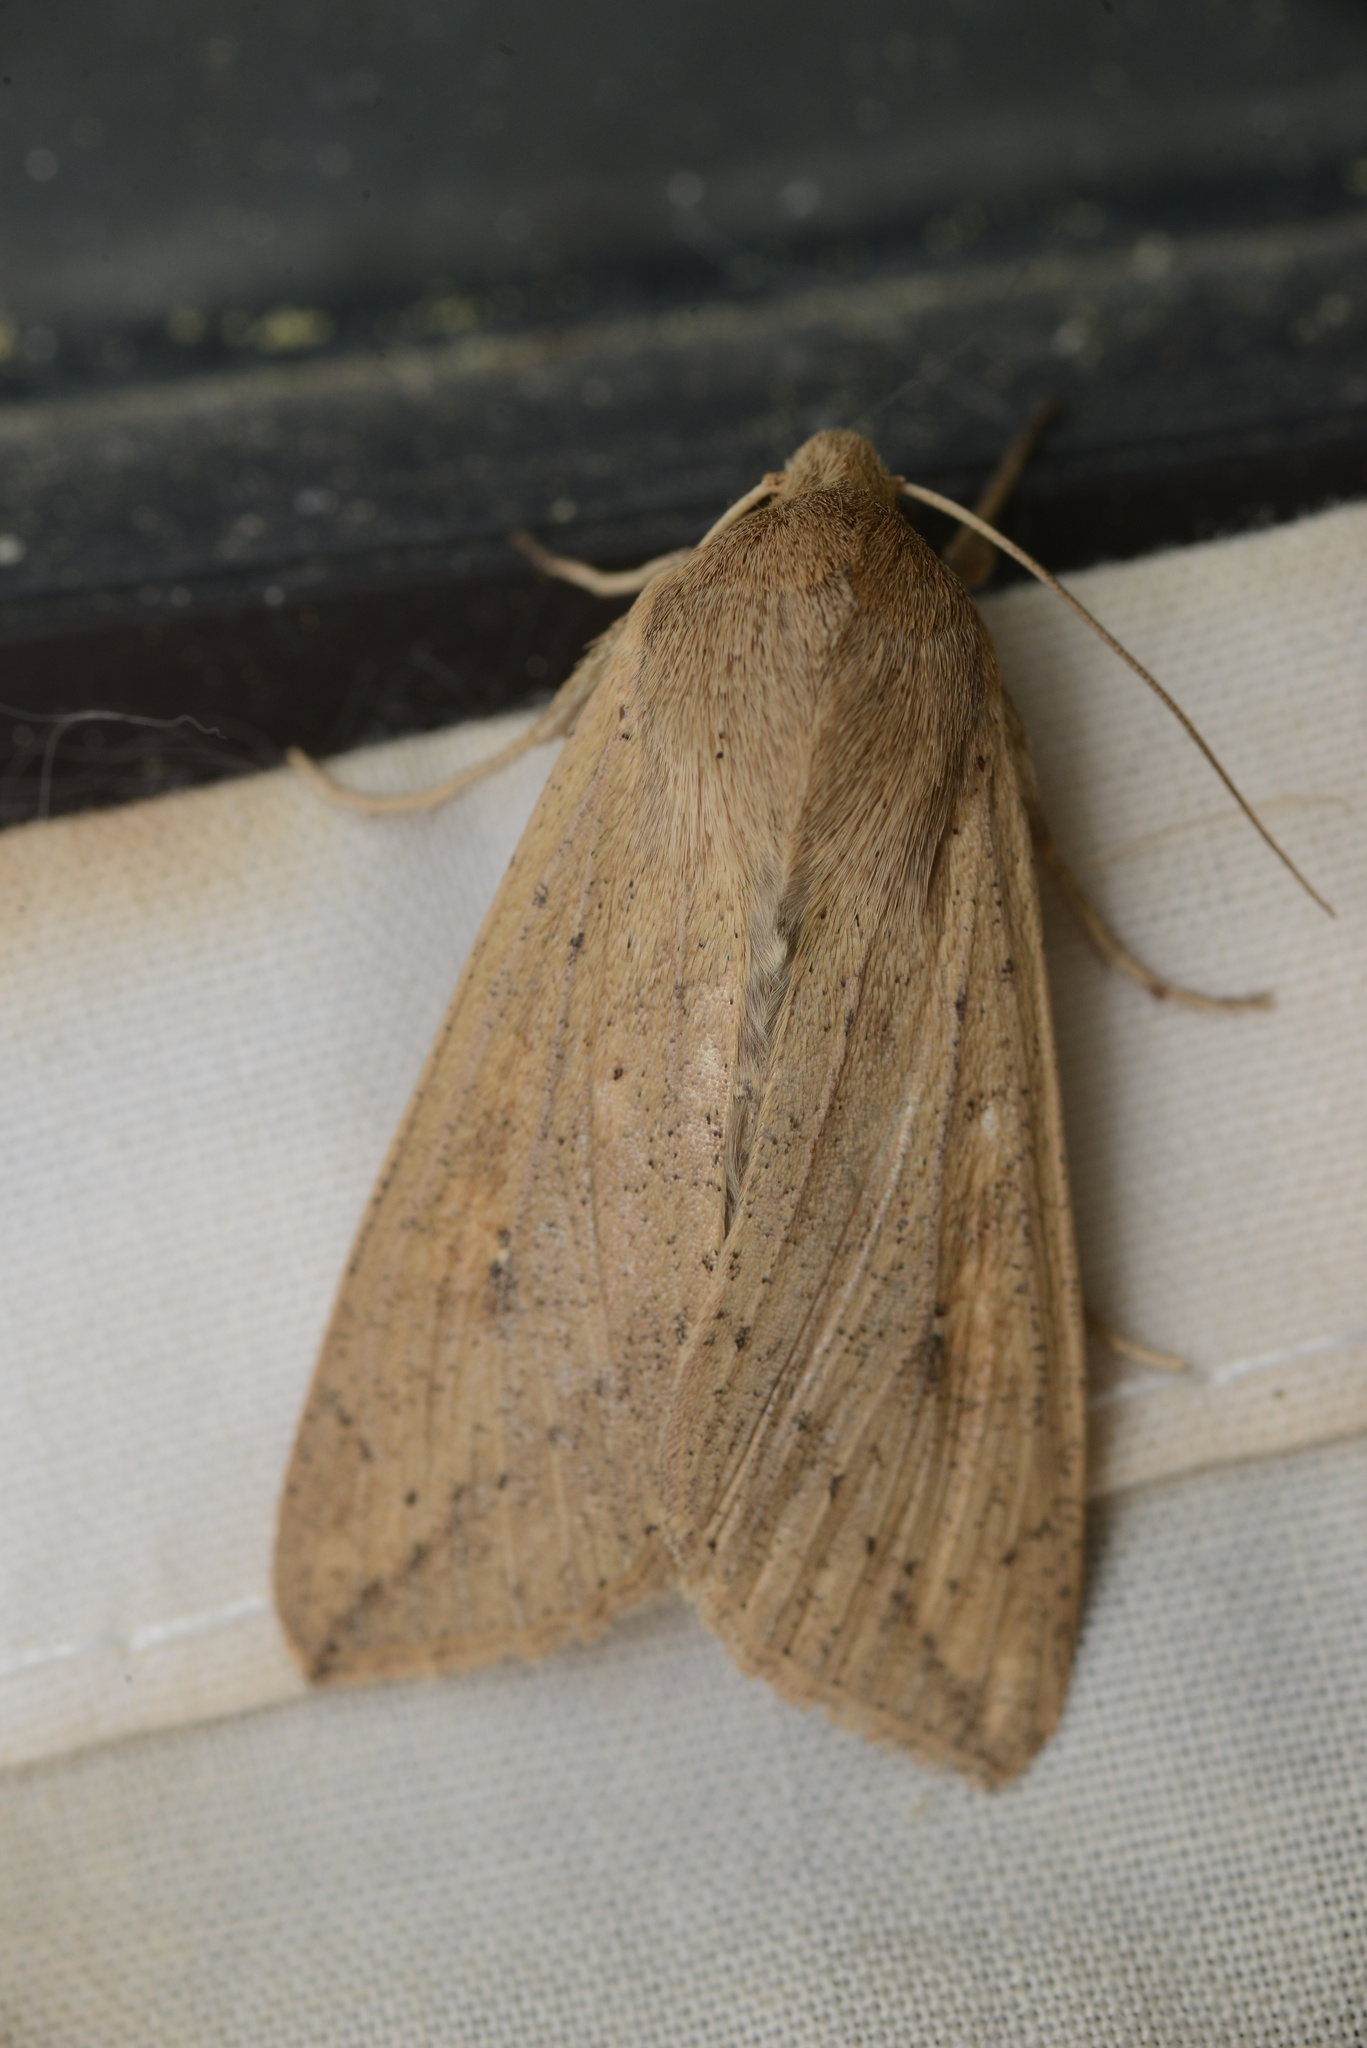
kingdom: Animalia
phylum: Arthropoda
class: Insecta
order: Lepidoptera
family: Noctuidae
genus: Mythimna
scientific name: Mythimna separata
